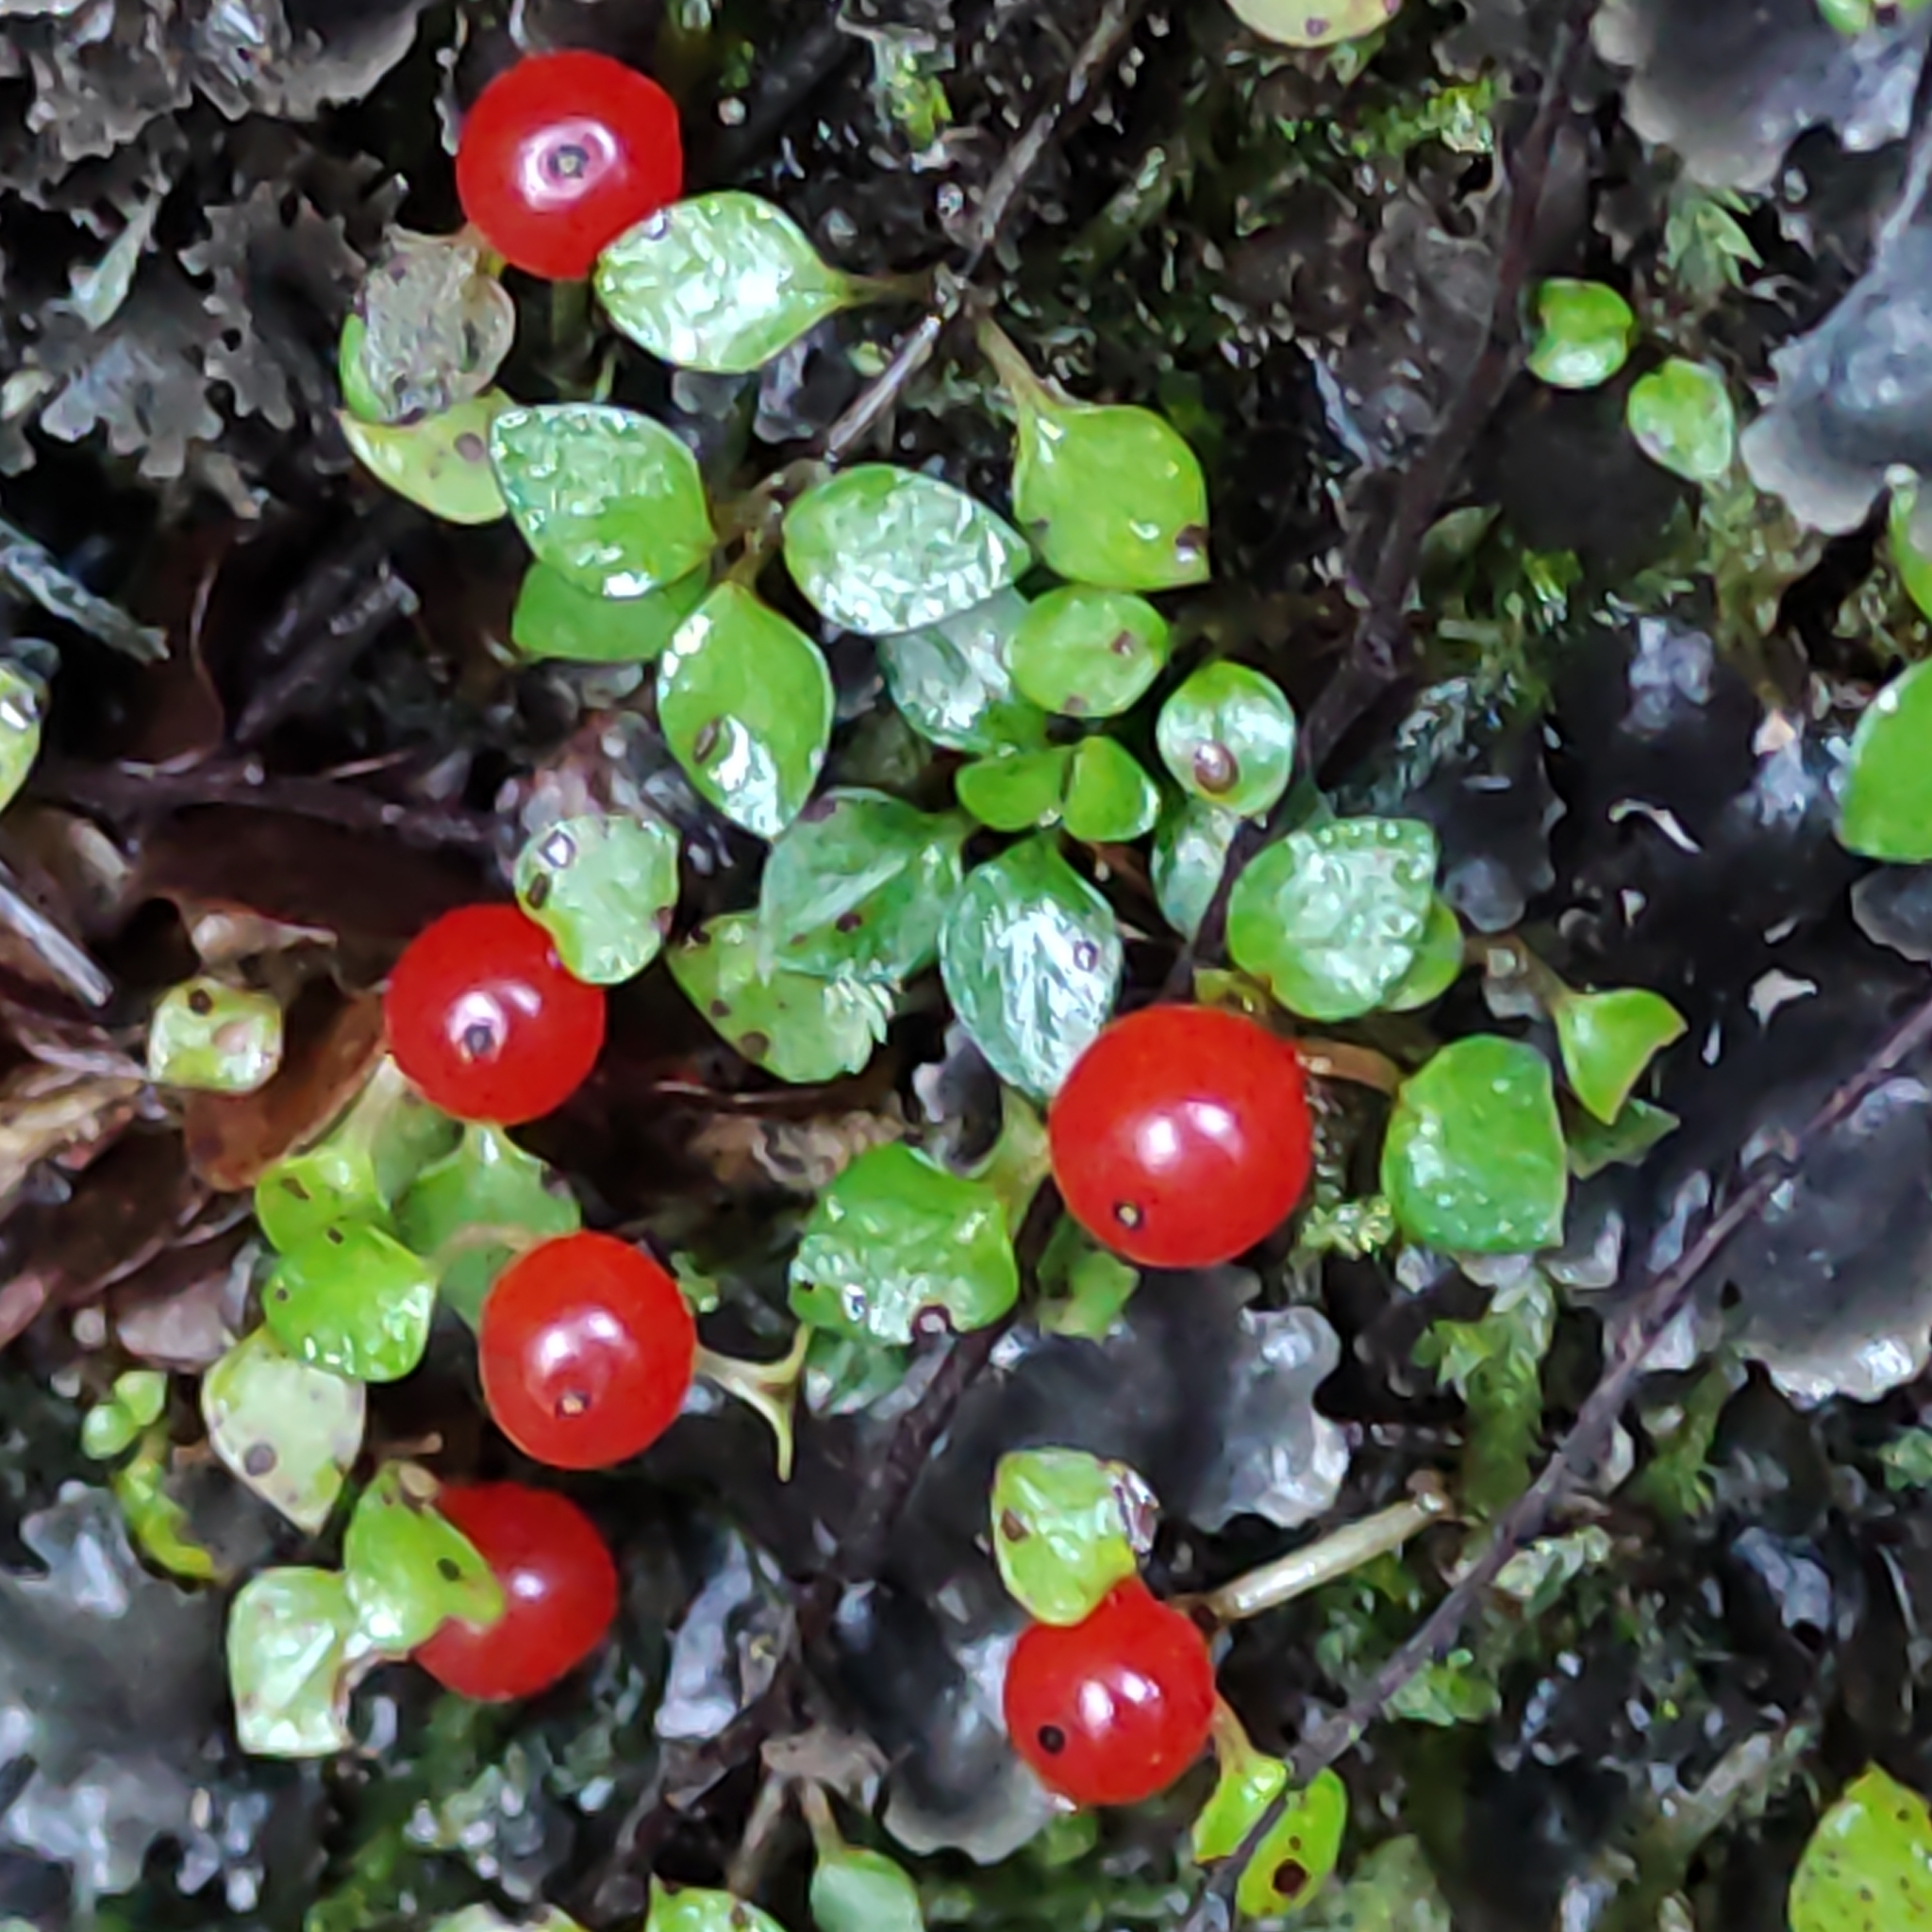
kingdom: Plantae
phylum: Tracheophyta
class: Magnoliopsida
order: Gentianales
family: Rubiaceae
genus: Nertera
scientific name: Nertera granadensis
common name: Beadplant
